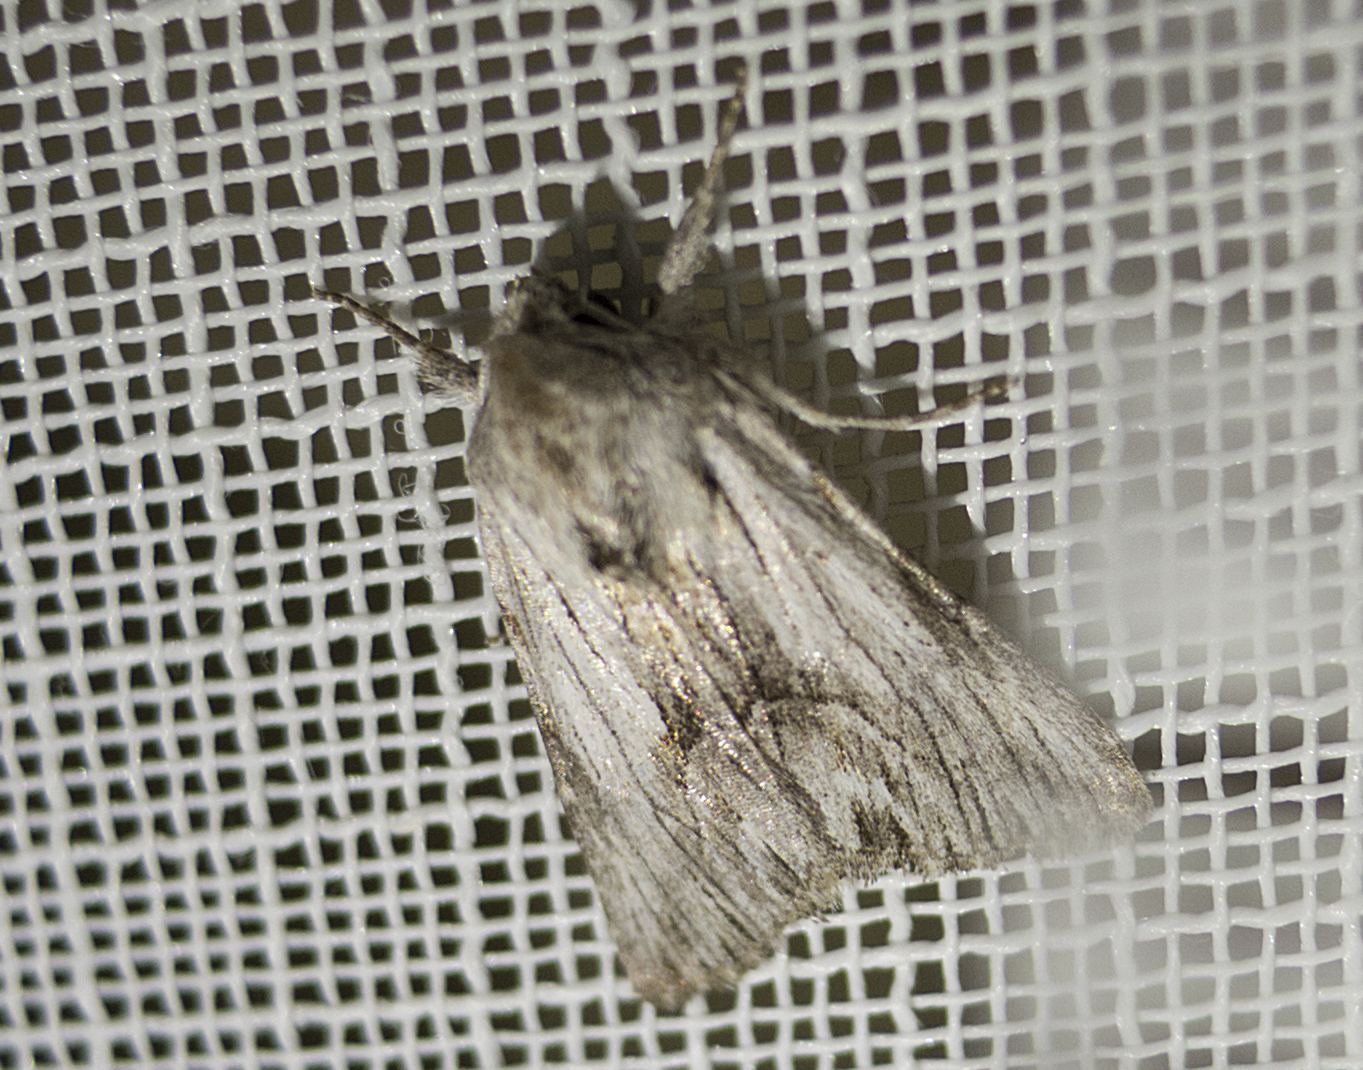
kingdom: Animalia
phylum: Arthropoda
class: Insecta
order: Lepidoptera
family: Noctuidae
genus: Calophasia
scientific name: Calophasia platyptera
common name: Antirrhinum brocade
